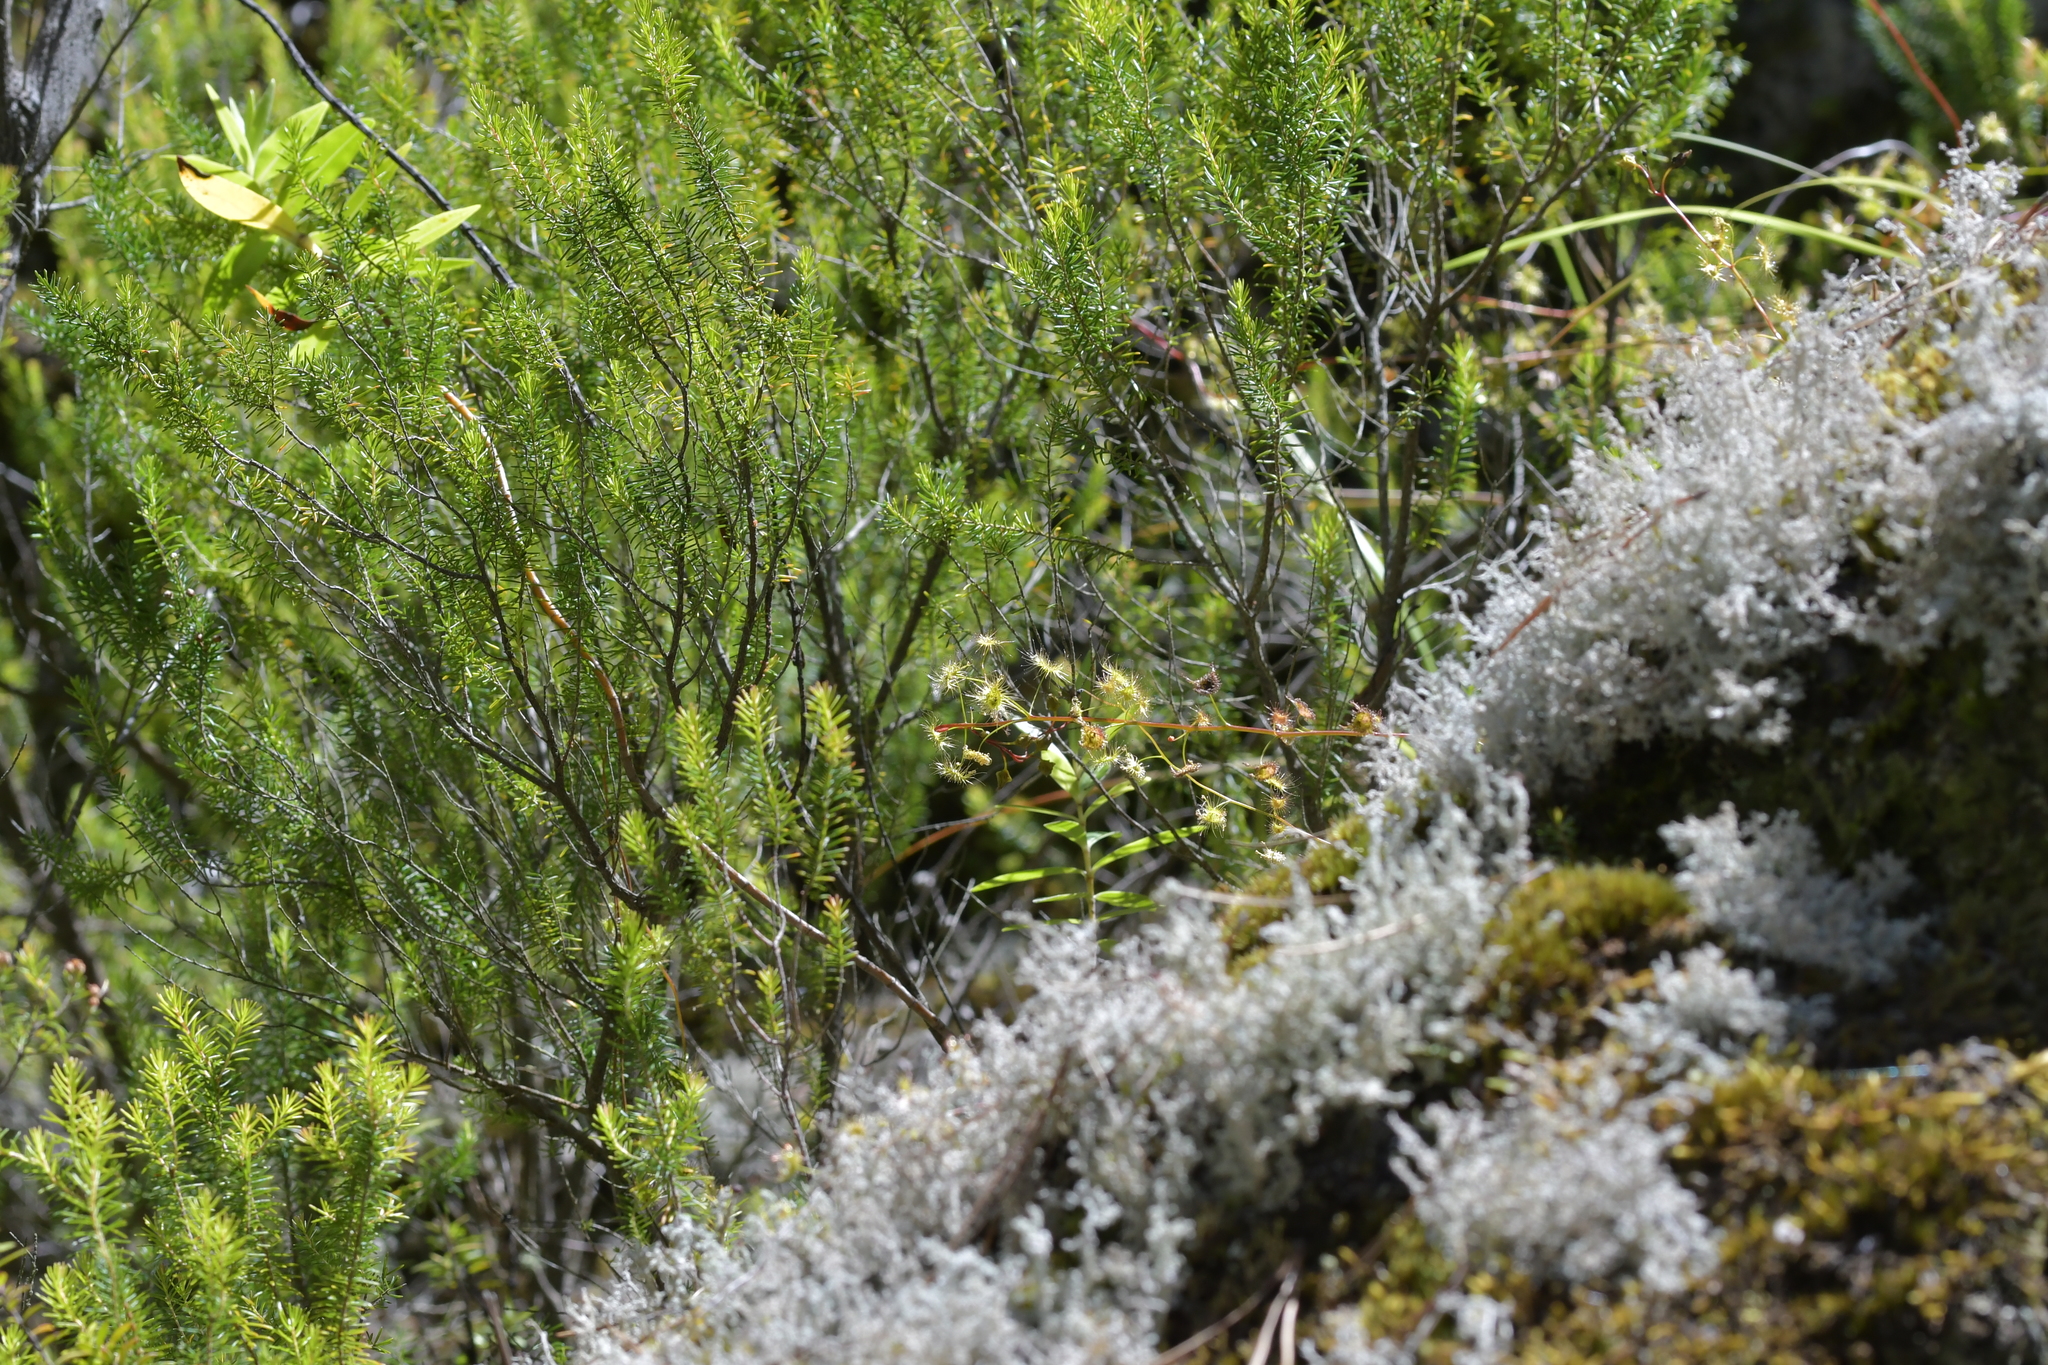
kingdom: Plantae
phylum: Tracheophyta
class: Magnoliopsida
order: Caryophyllales
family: Droseraceae
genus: Drosera
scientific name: Drosera peltata
